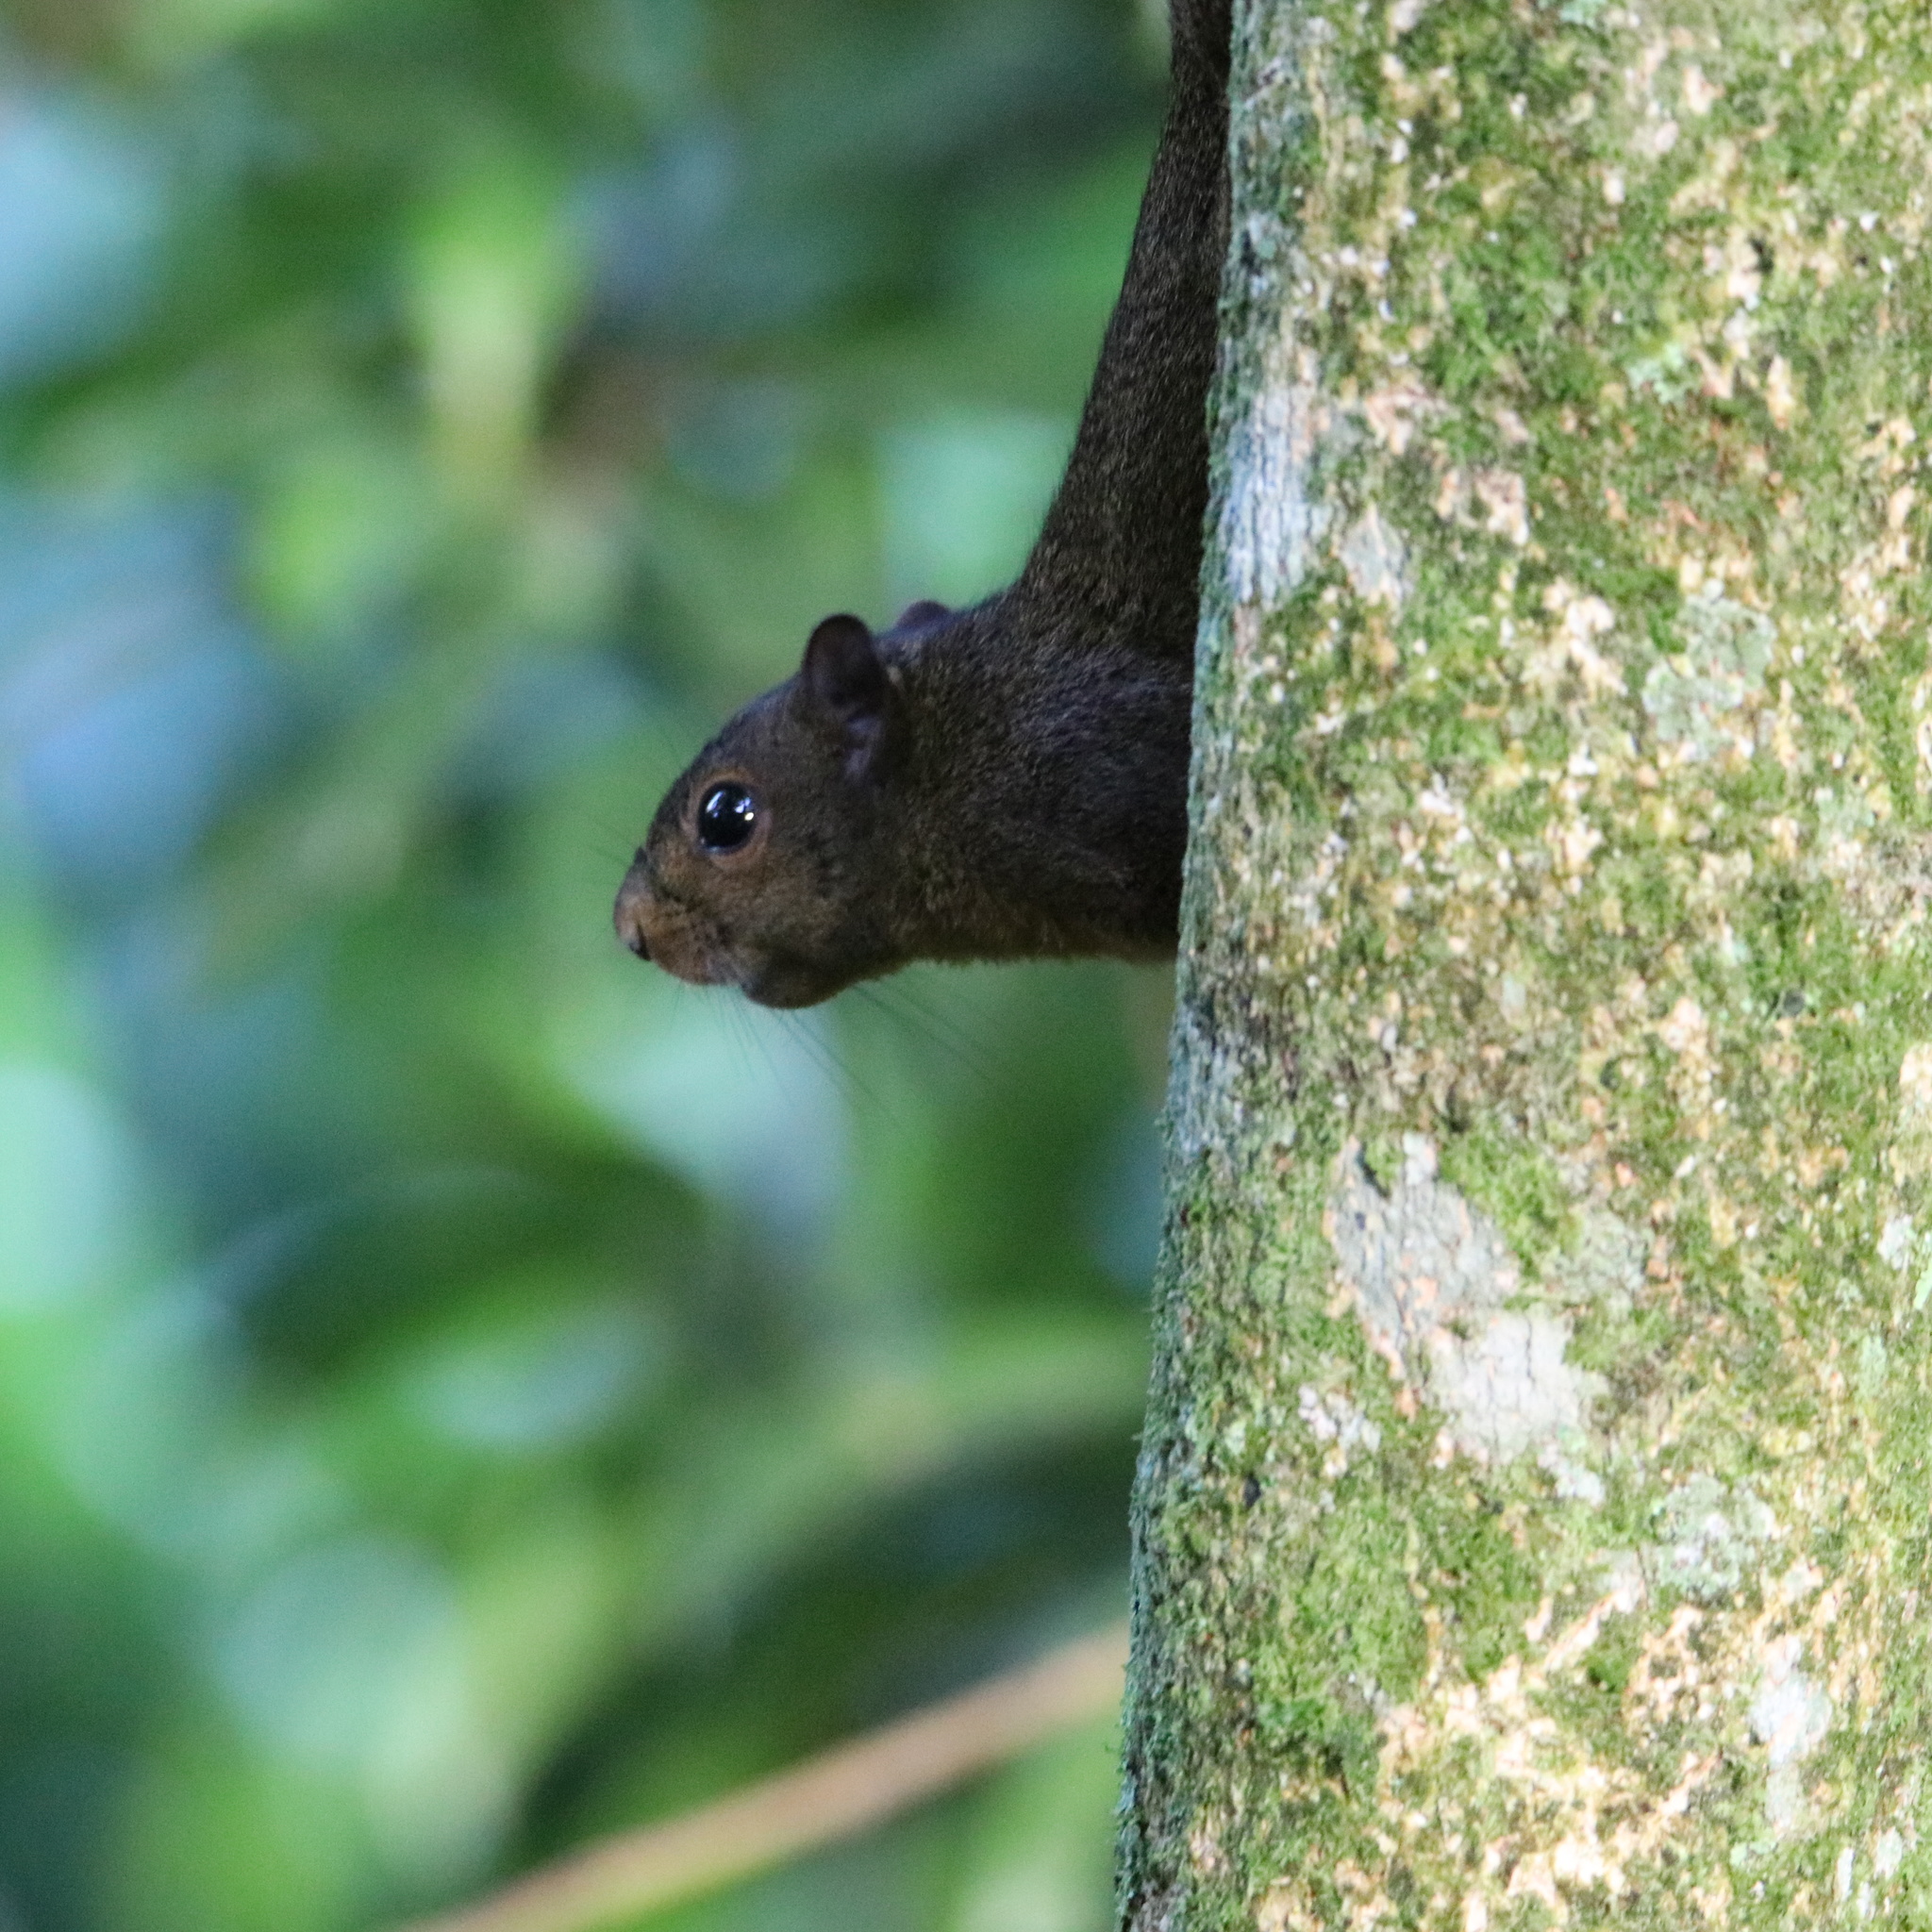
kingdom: Animalia
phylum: Chordata
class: Mammalia
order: Rodentia
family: Sciuridae
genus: Sciurus
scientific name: Sciurus granatensis
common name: Red-tailed squirrel
